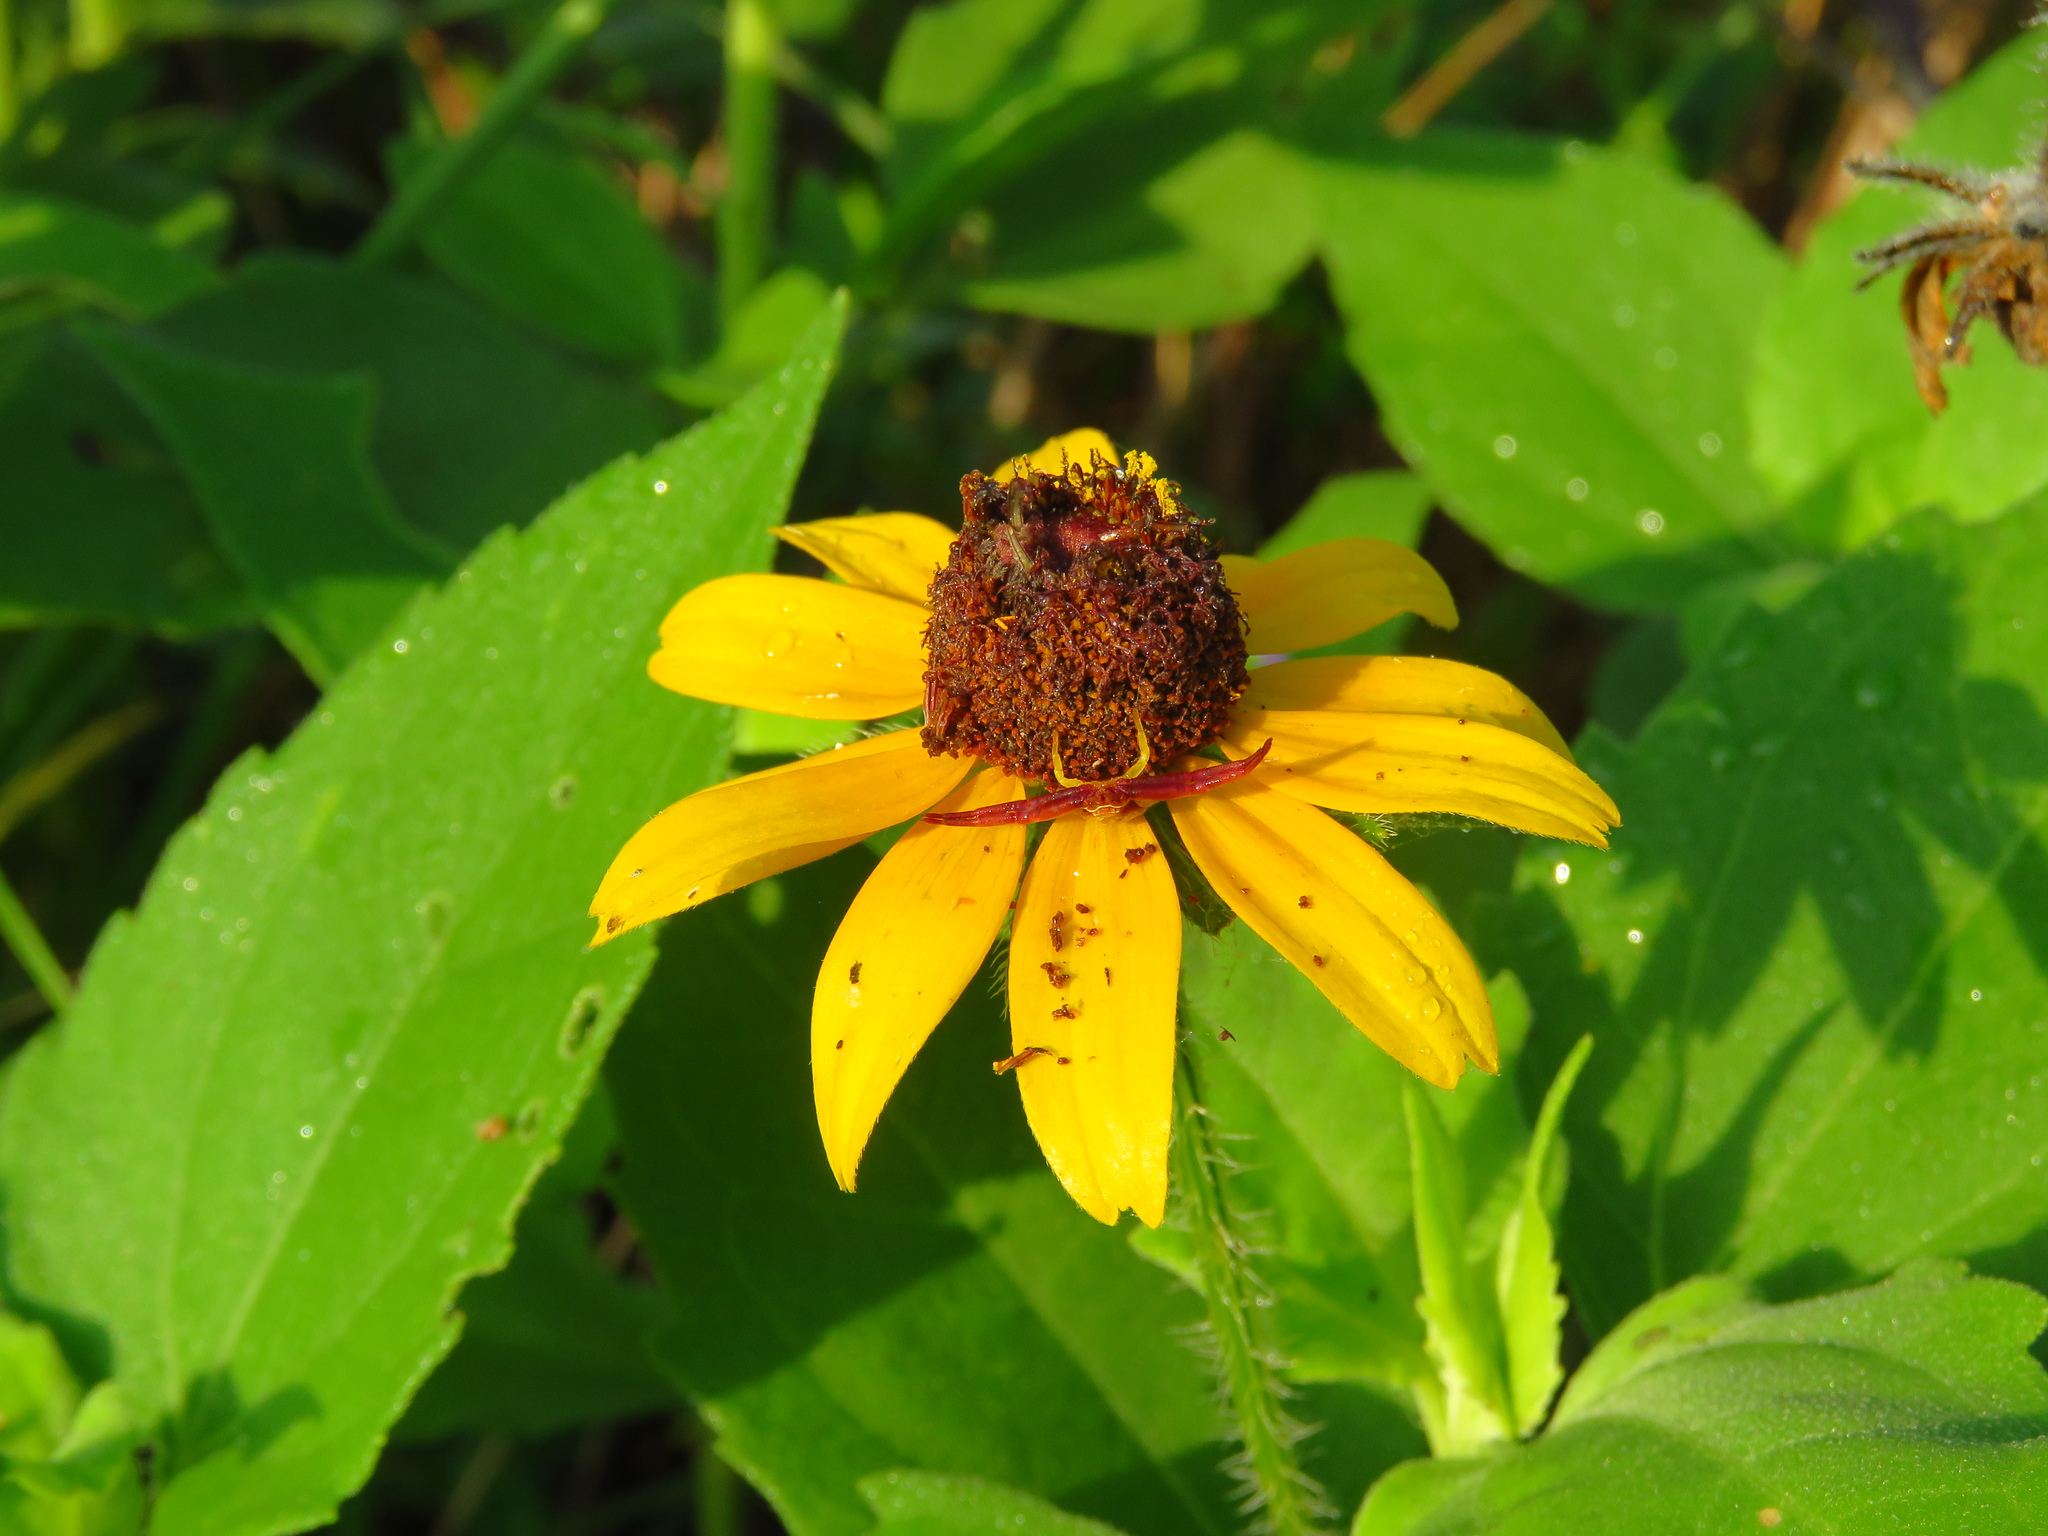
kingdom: Plantae
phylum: Tracheophyta
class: Magnoliopsida
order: Asterales
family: Asteraceae
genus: Rudbeckia
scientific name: Rudbeckia hirta
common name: Black-eyed-susan
